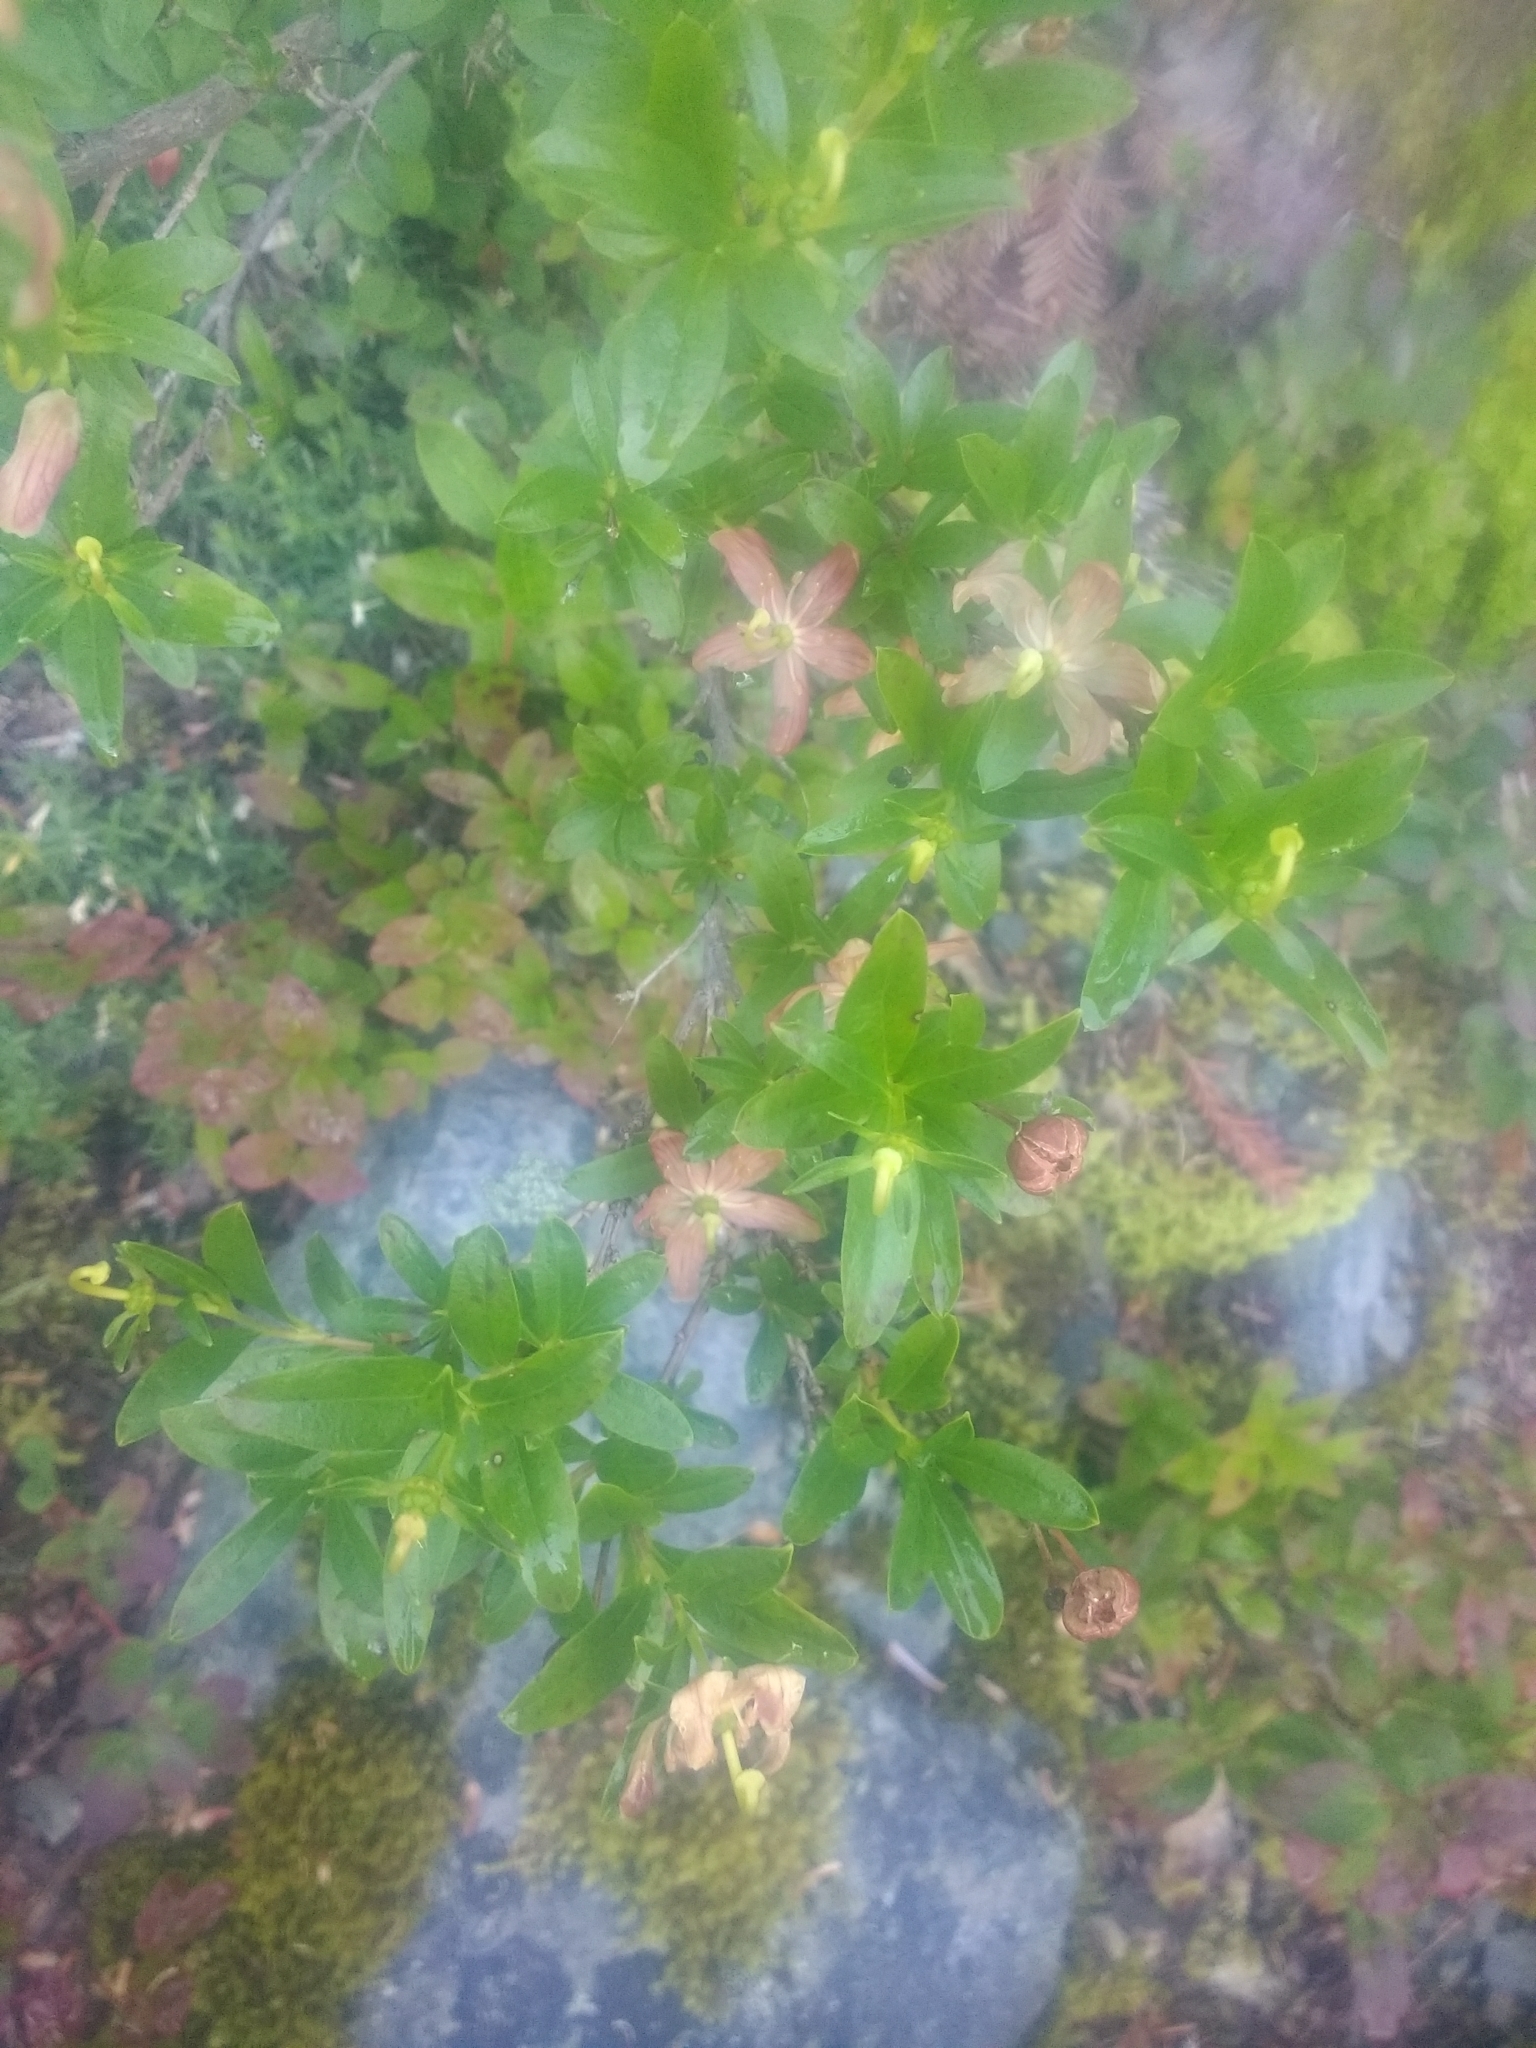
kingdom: Plantae
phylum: Tracheophyta
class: Magnoliopsida
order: Ericales
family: Ericaceae
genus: Elliottia
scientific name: Elliottia pyroliflora
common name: Copperbush
